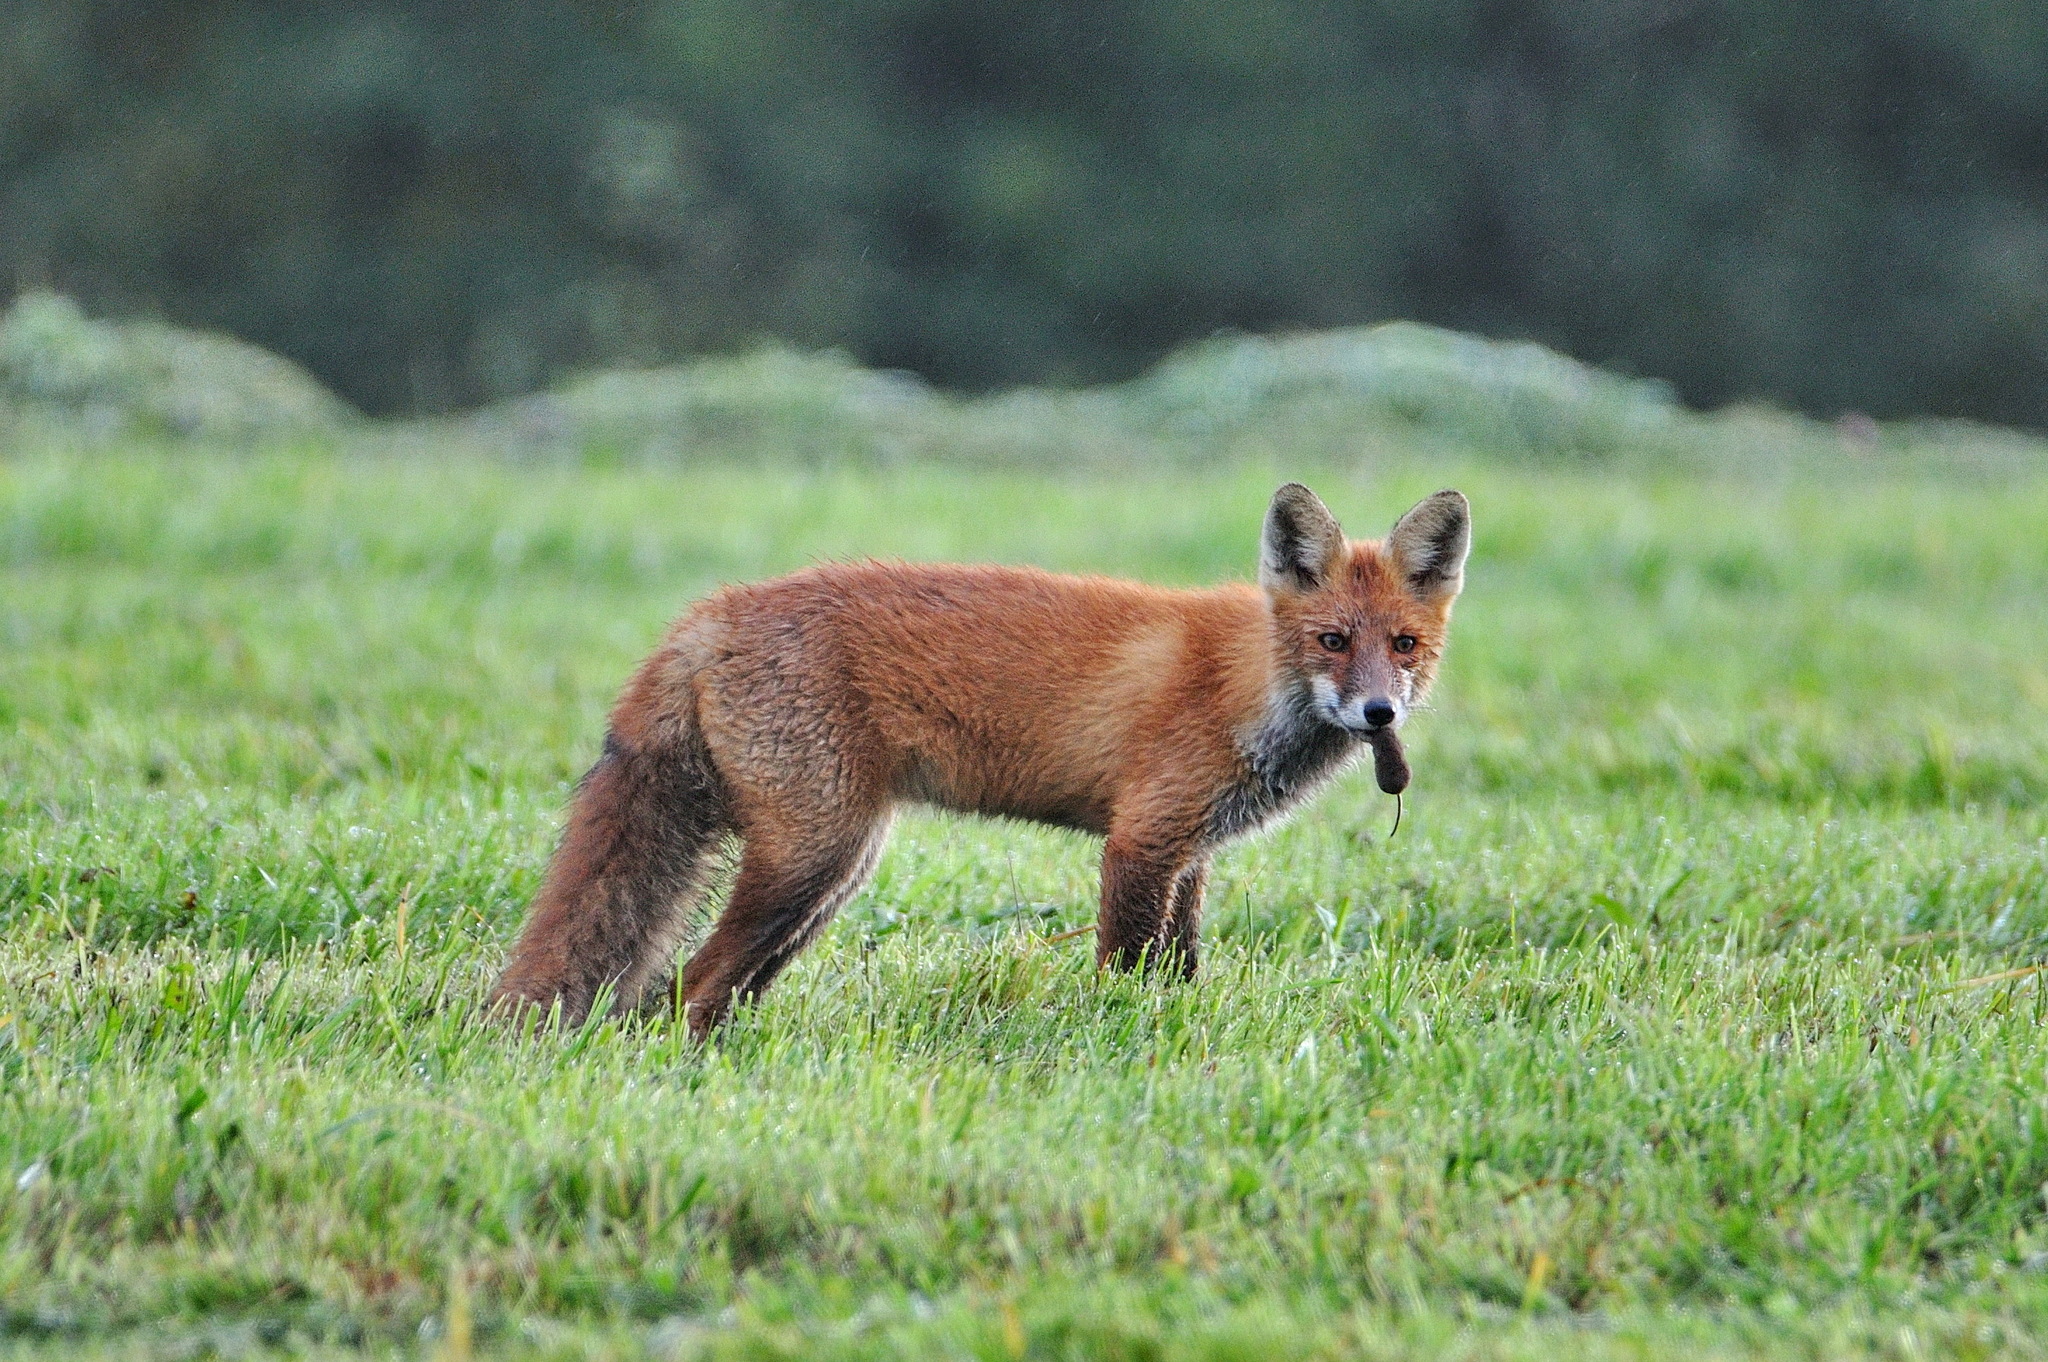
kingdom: Animalia
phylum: Chordata
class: Mammalia
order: Carnivora
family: Canidae
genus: Vulpes
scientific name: Vulpes vulpes
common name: Red fox
